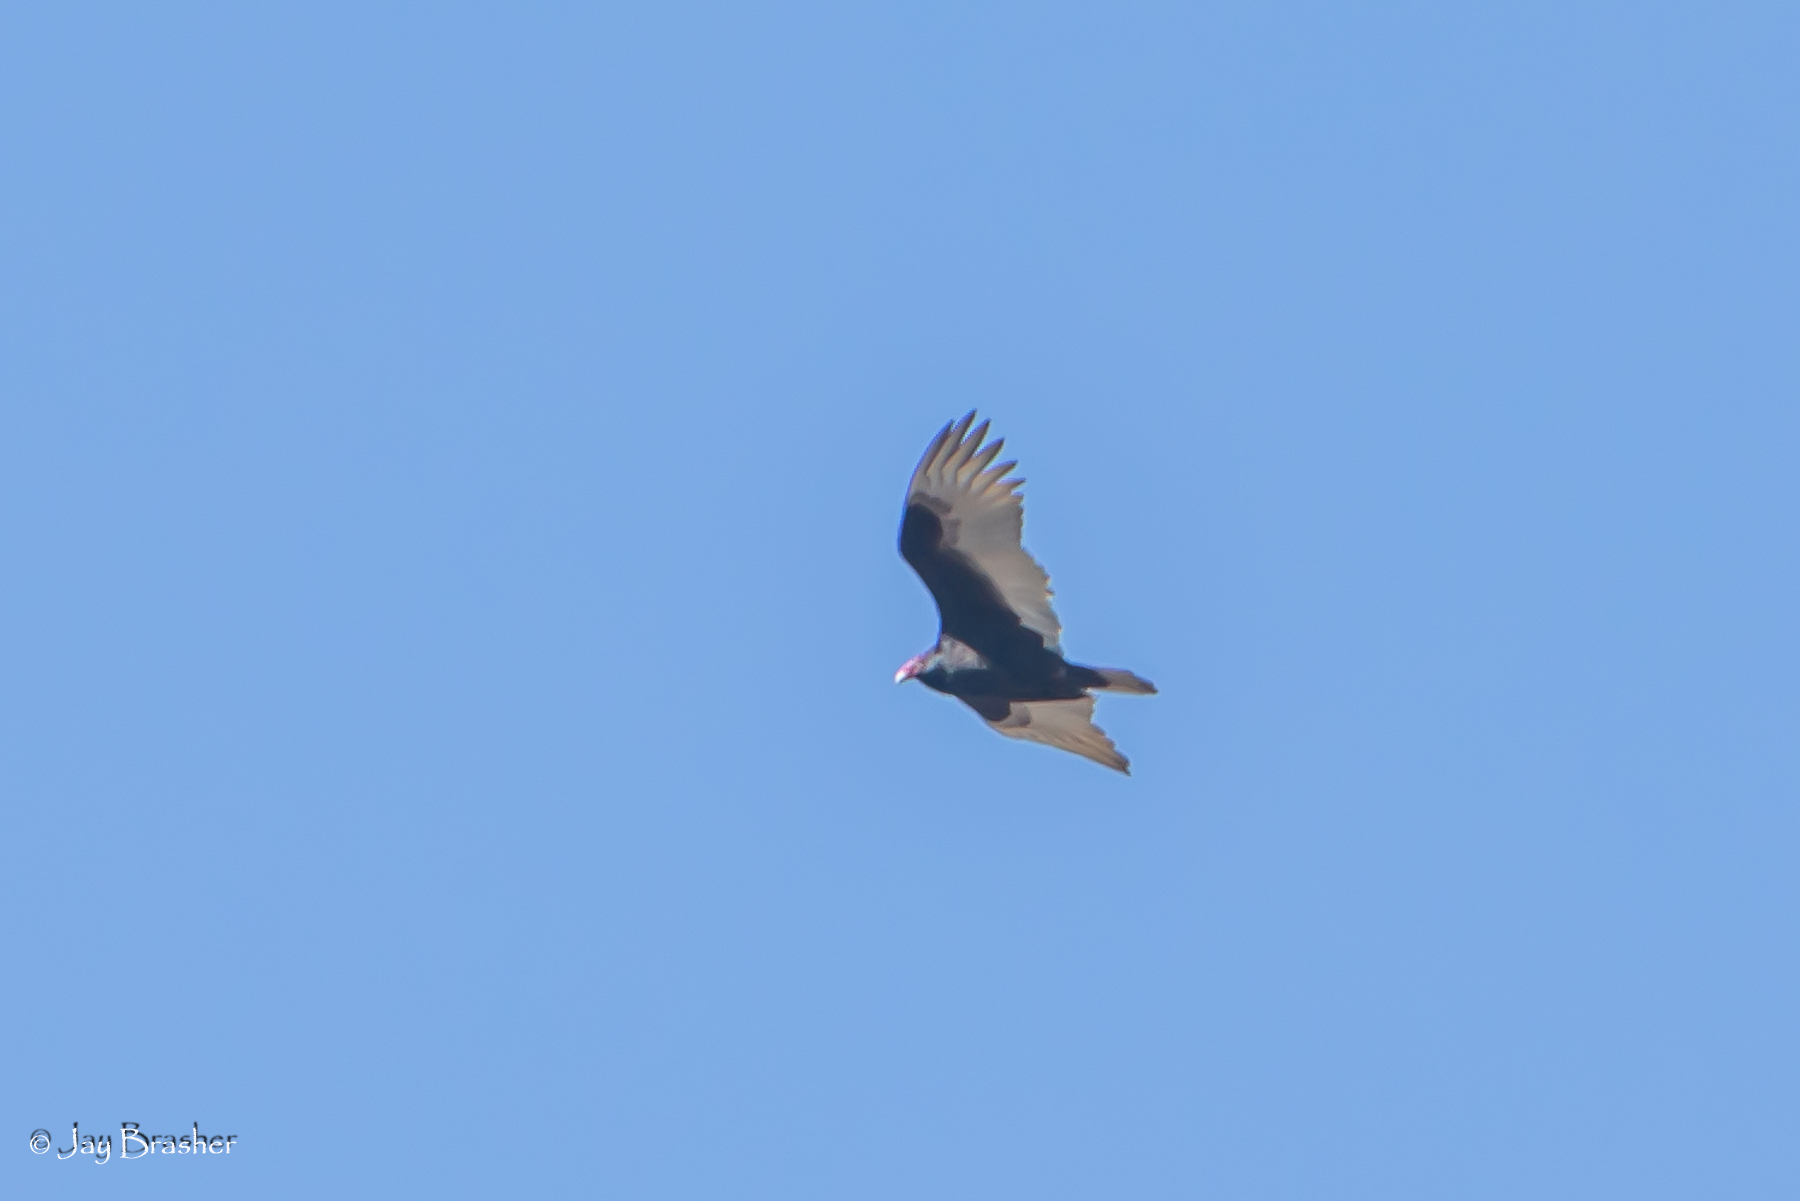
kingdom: Animalia
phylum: Chordata
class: Aves
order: Accipitriformes
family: Cathartidae
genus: Cathartes
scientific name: Cathartes aura
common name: Turkey vulture
